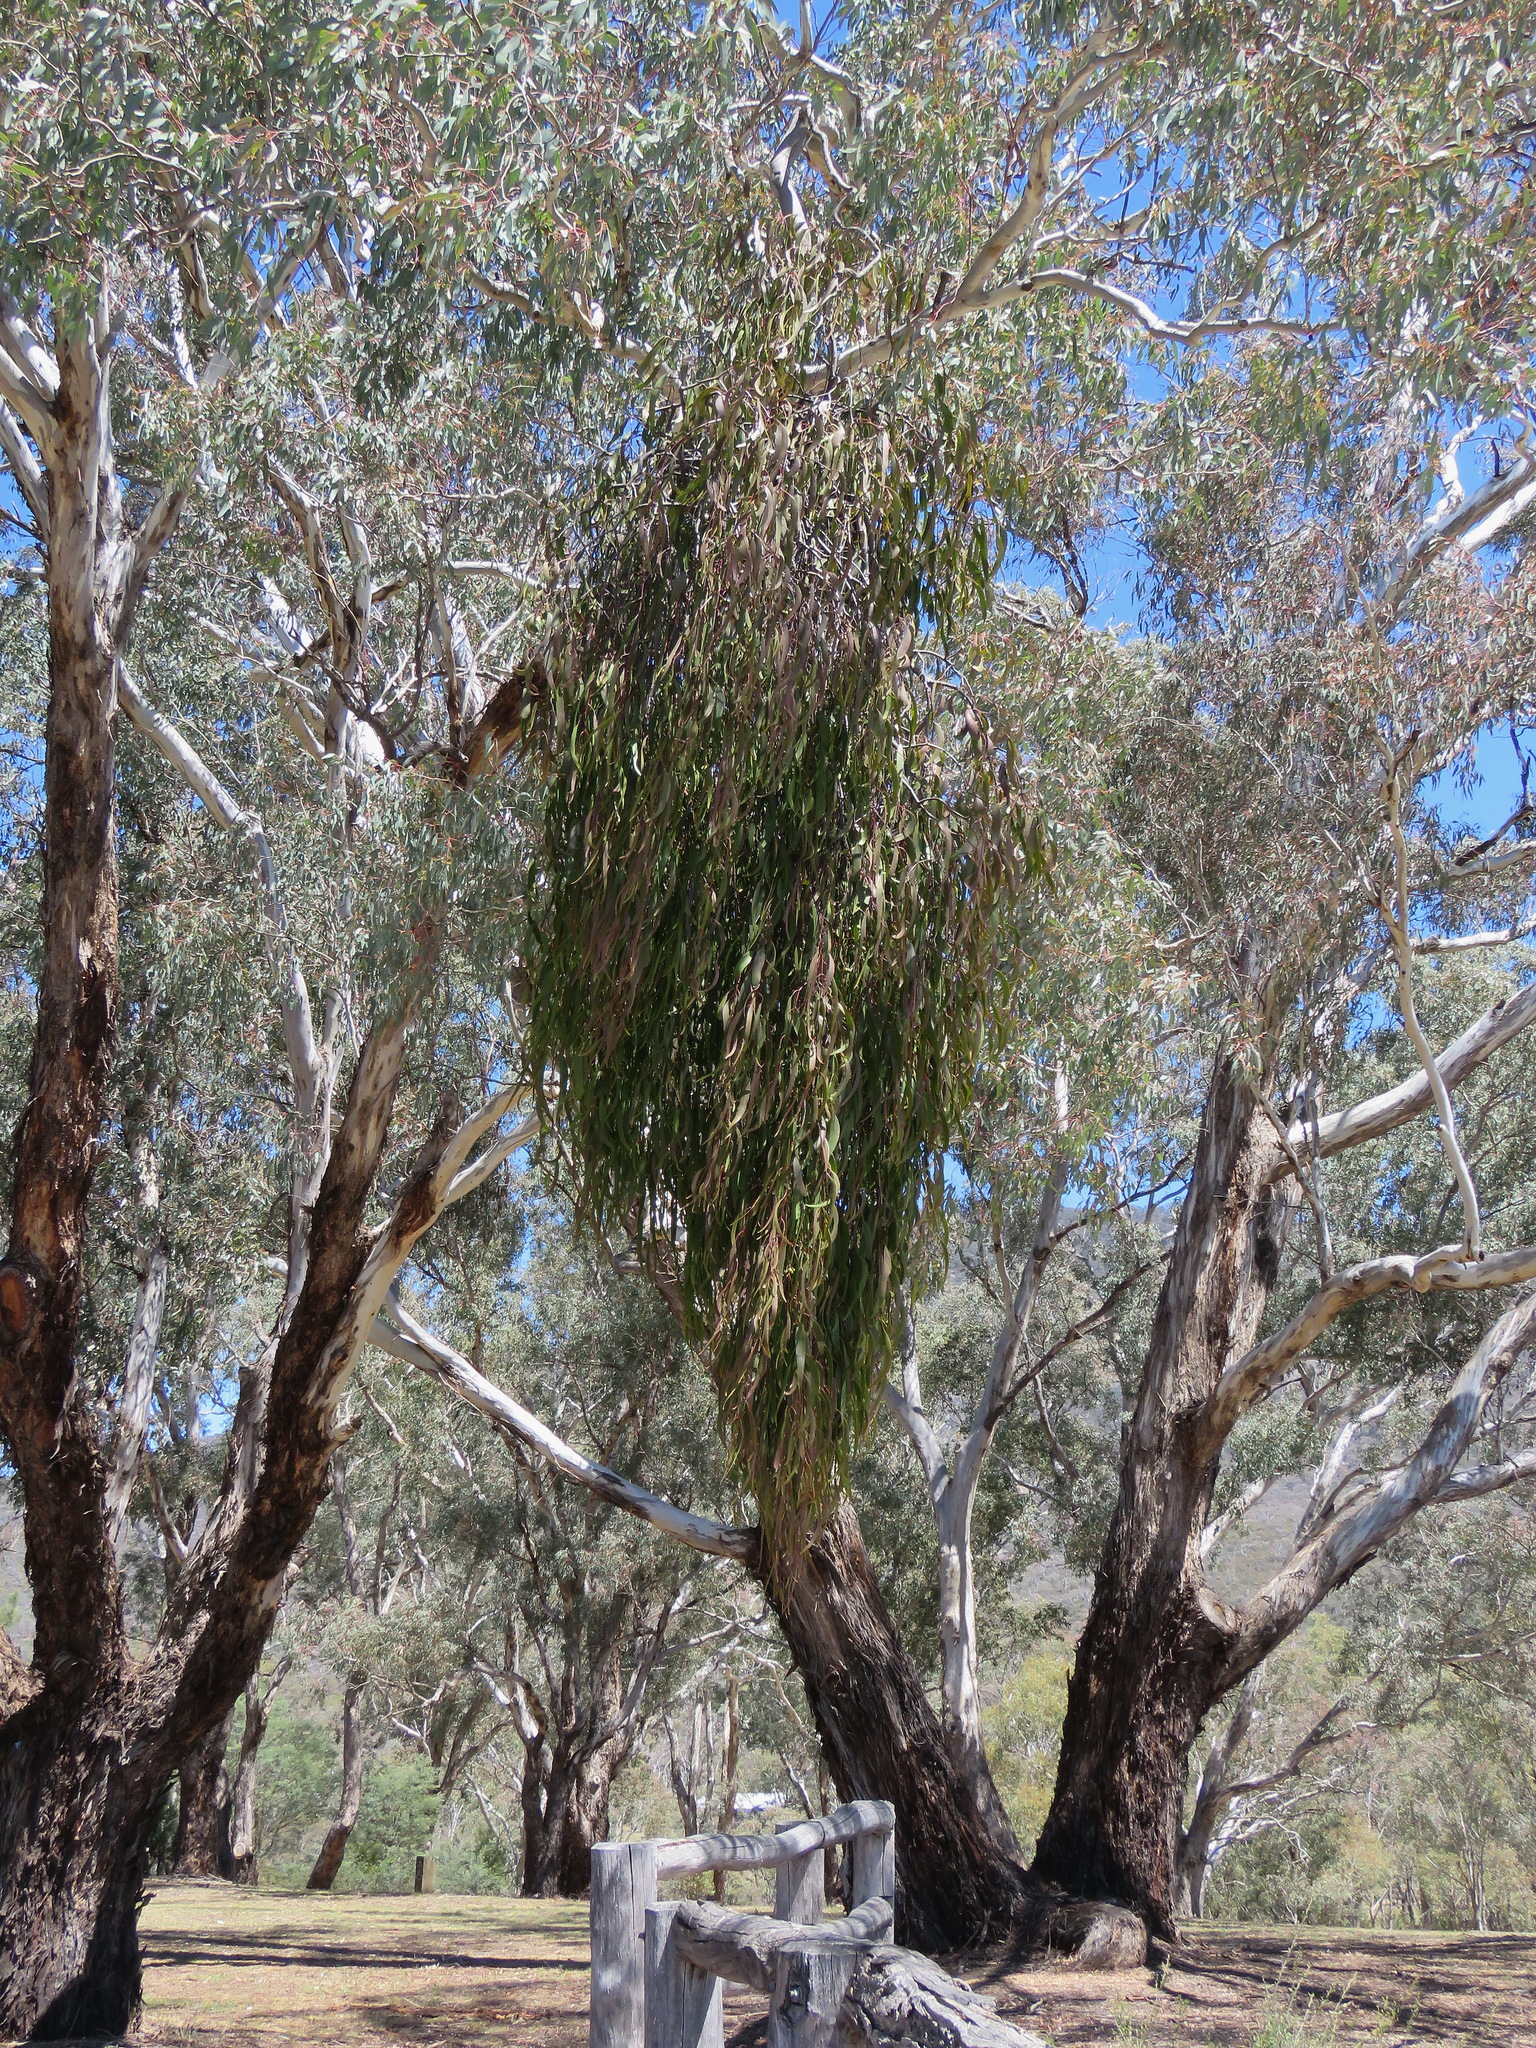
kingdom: Plantae
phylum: Tracheophyta
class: Magnoliopsida
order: Santalales
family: Loranthaceae
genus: Amyema
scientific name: Amyema
